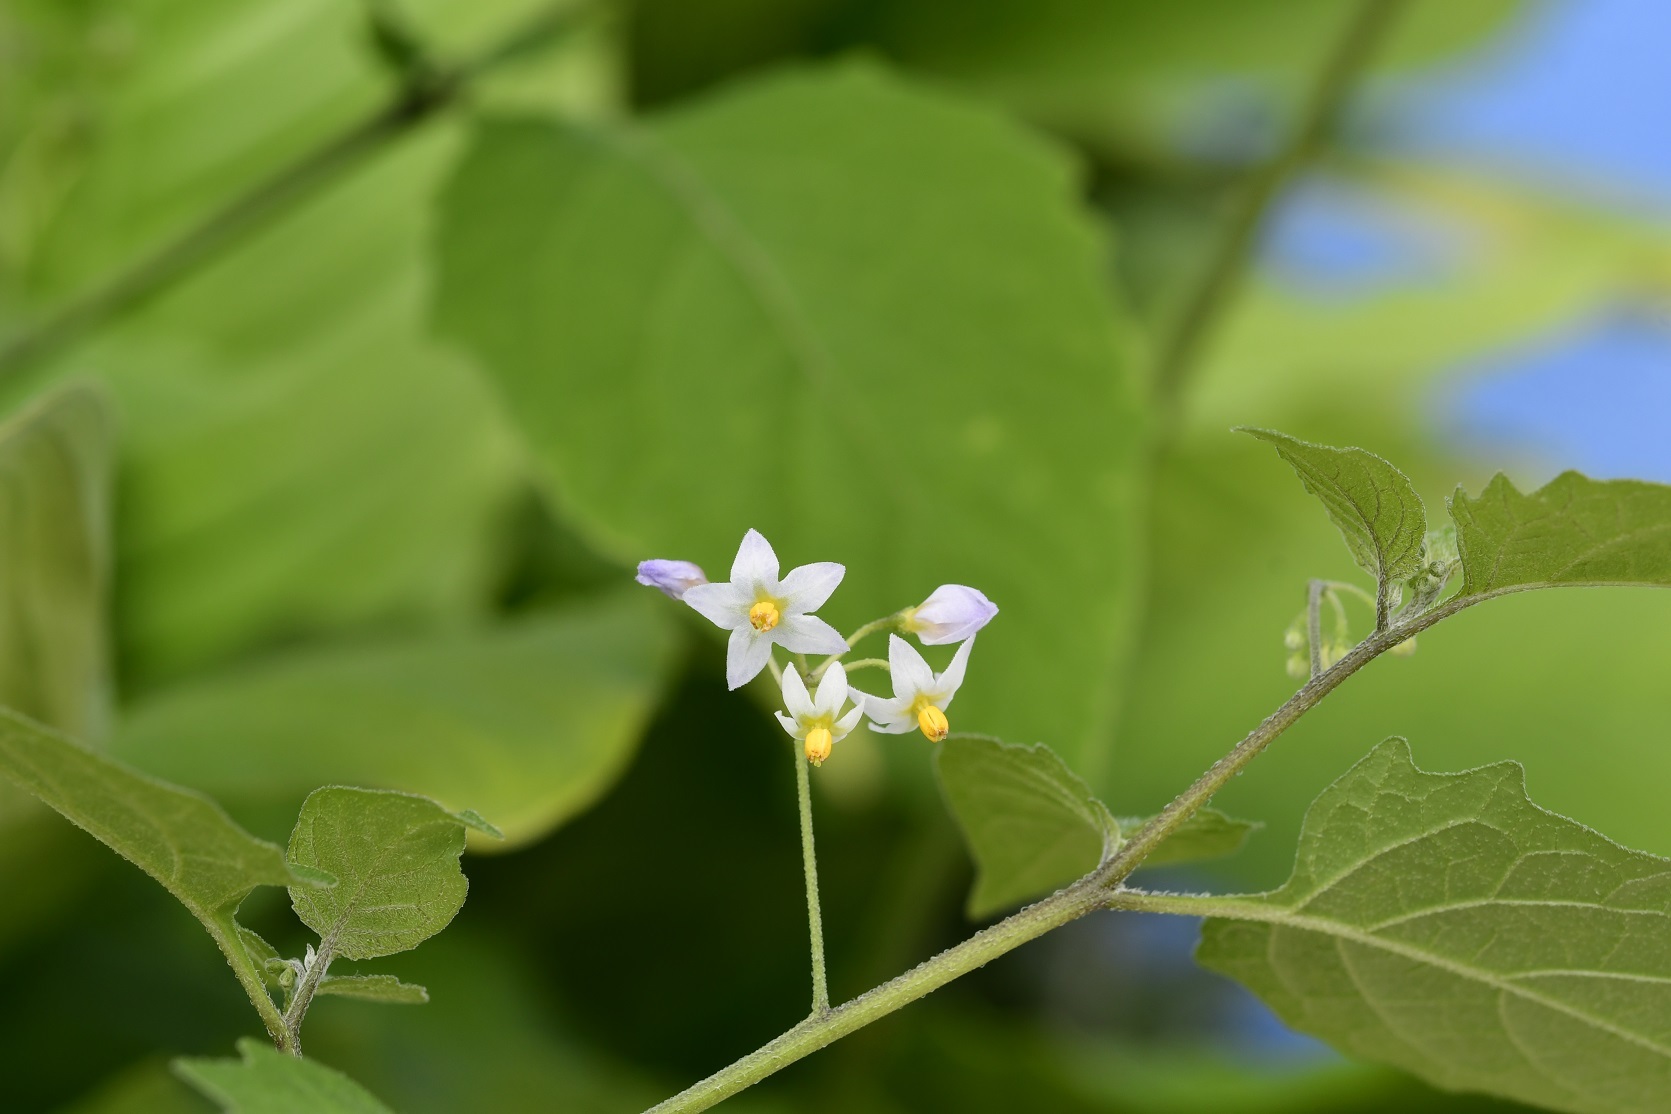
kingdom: Plantae
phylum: Tracheophyta
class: Magnoliopsida
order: Solanales
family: Solanaceae
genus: Solanum
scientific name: Solanum americanum
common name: American black nightshade
